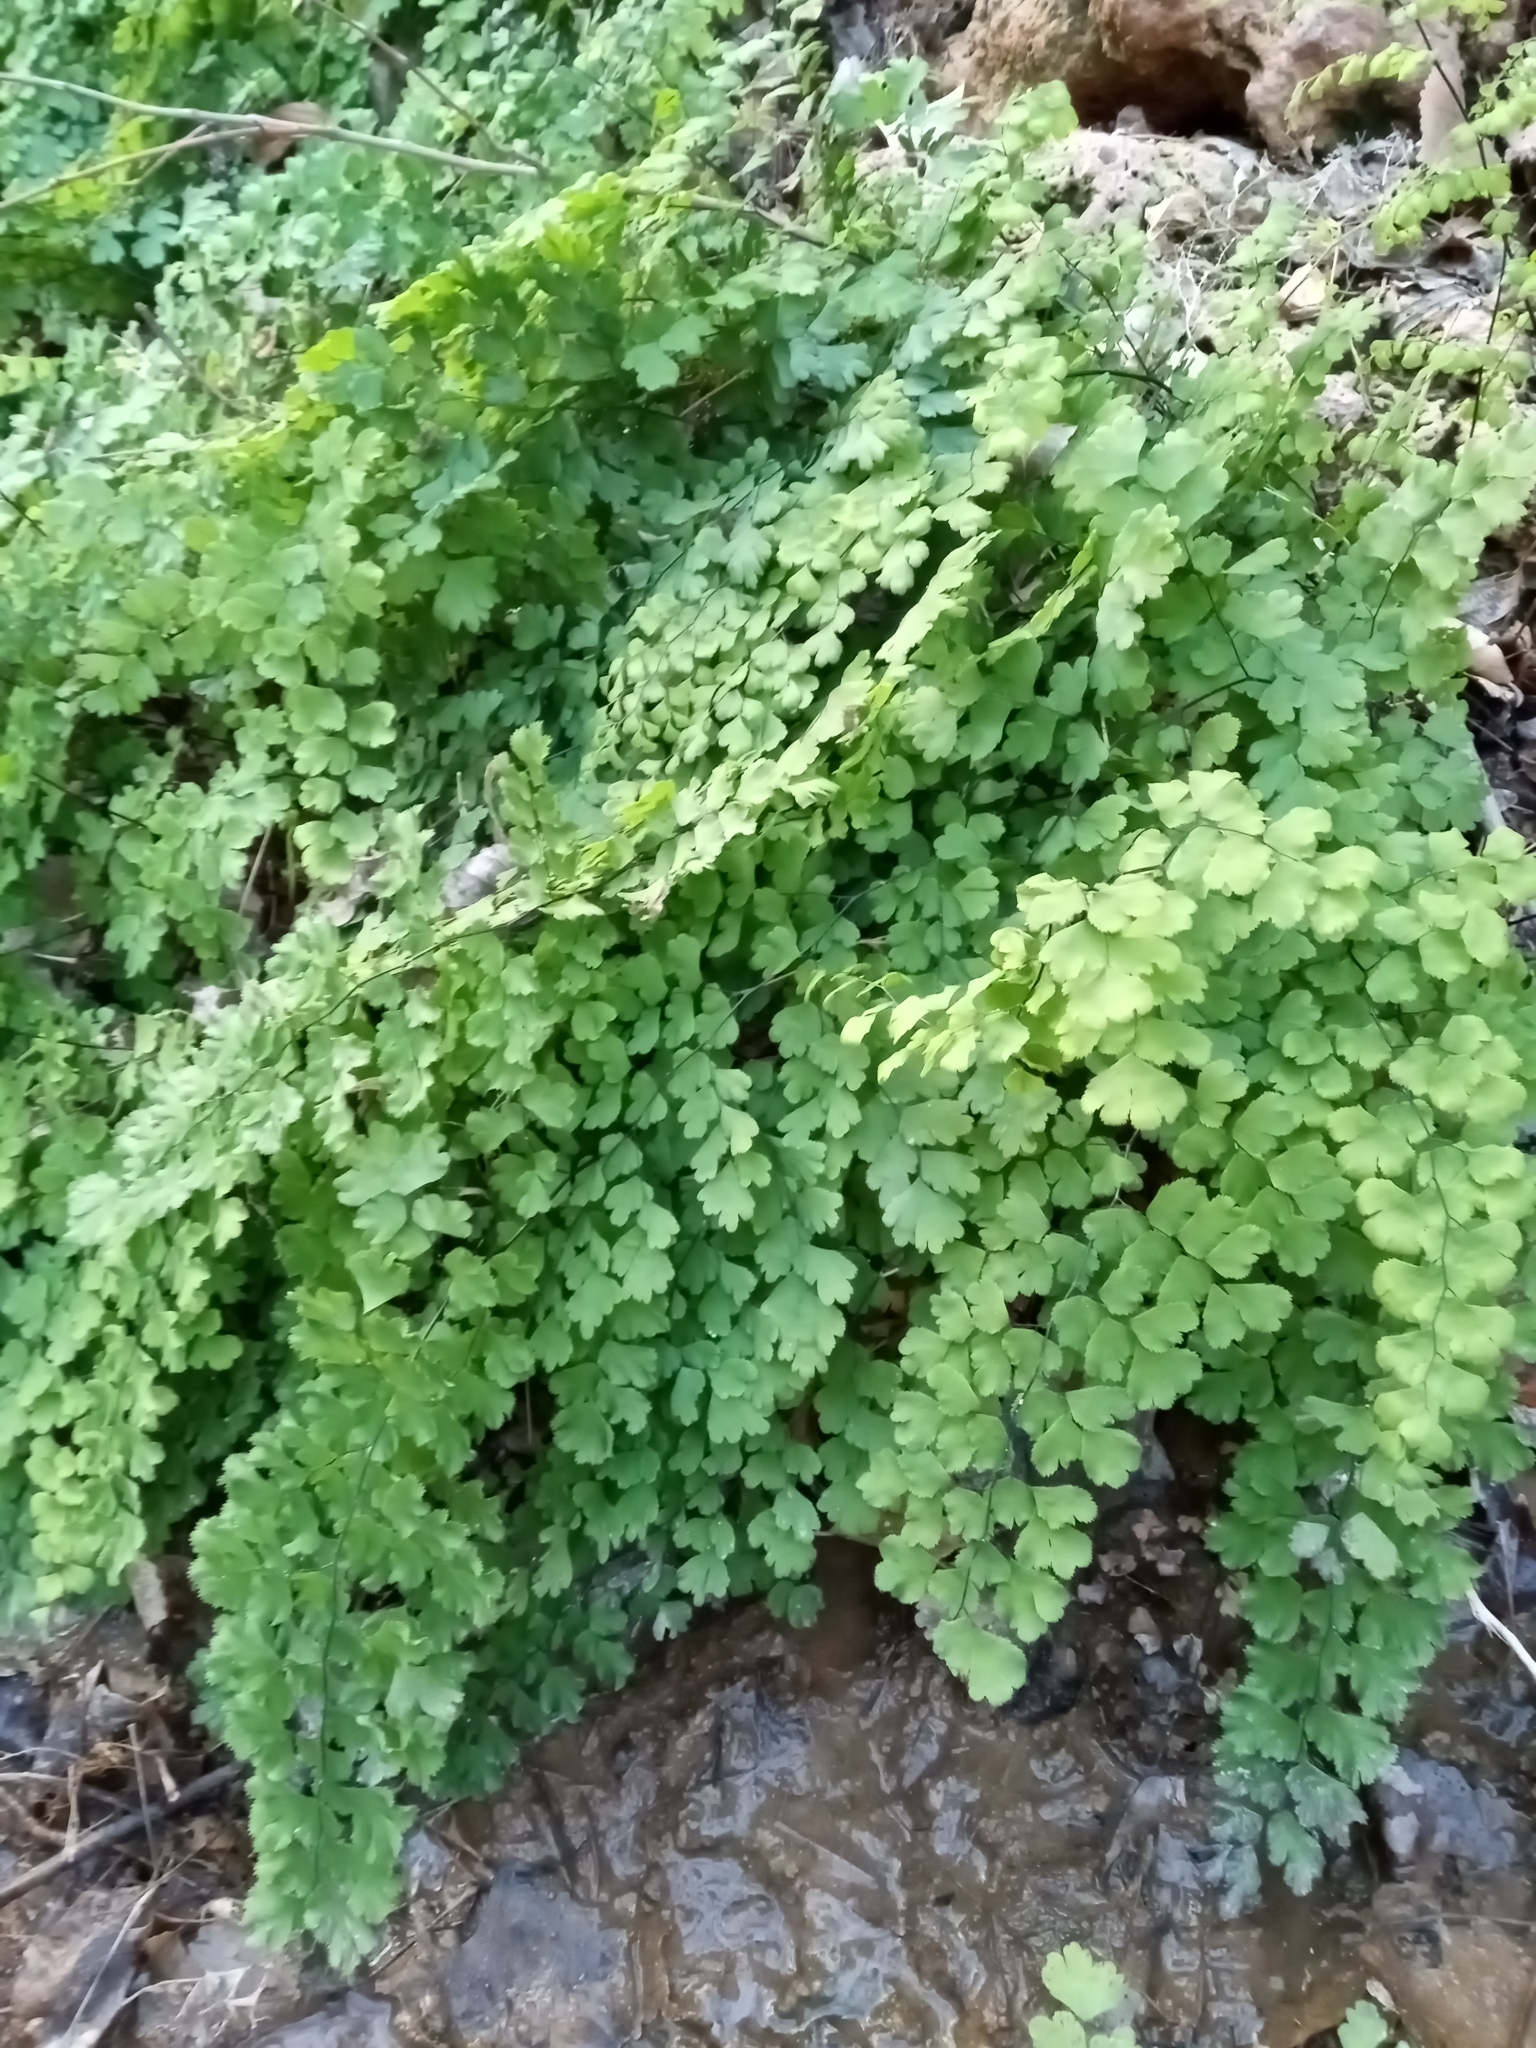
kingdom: Plantae
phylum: Tracheophyta
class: Polypodiopsida
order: Polypodiales
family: Pteridaceae
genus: Adiantum
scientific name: Adiantum capillus-veneris
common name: Maidenhair fern
